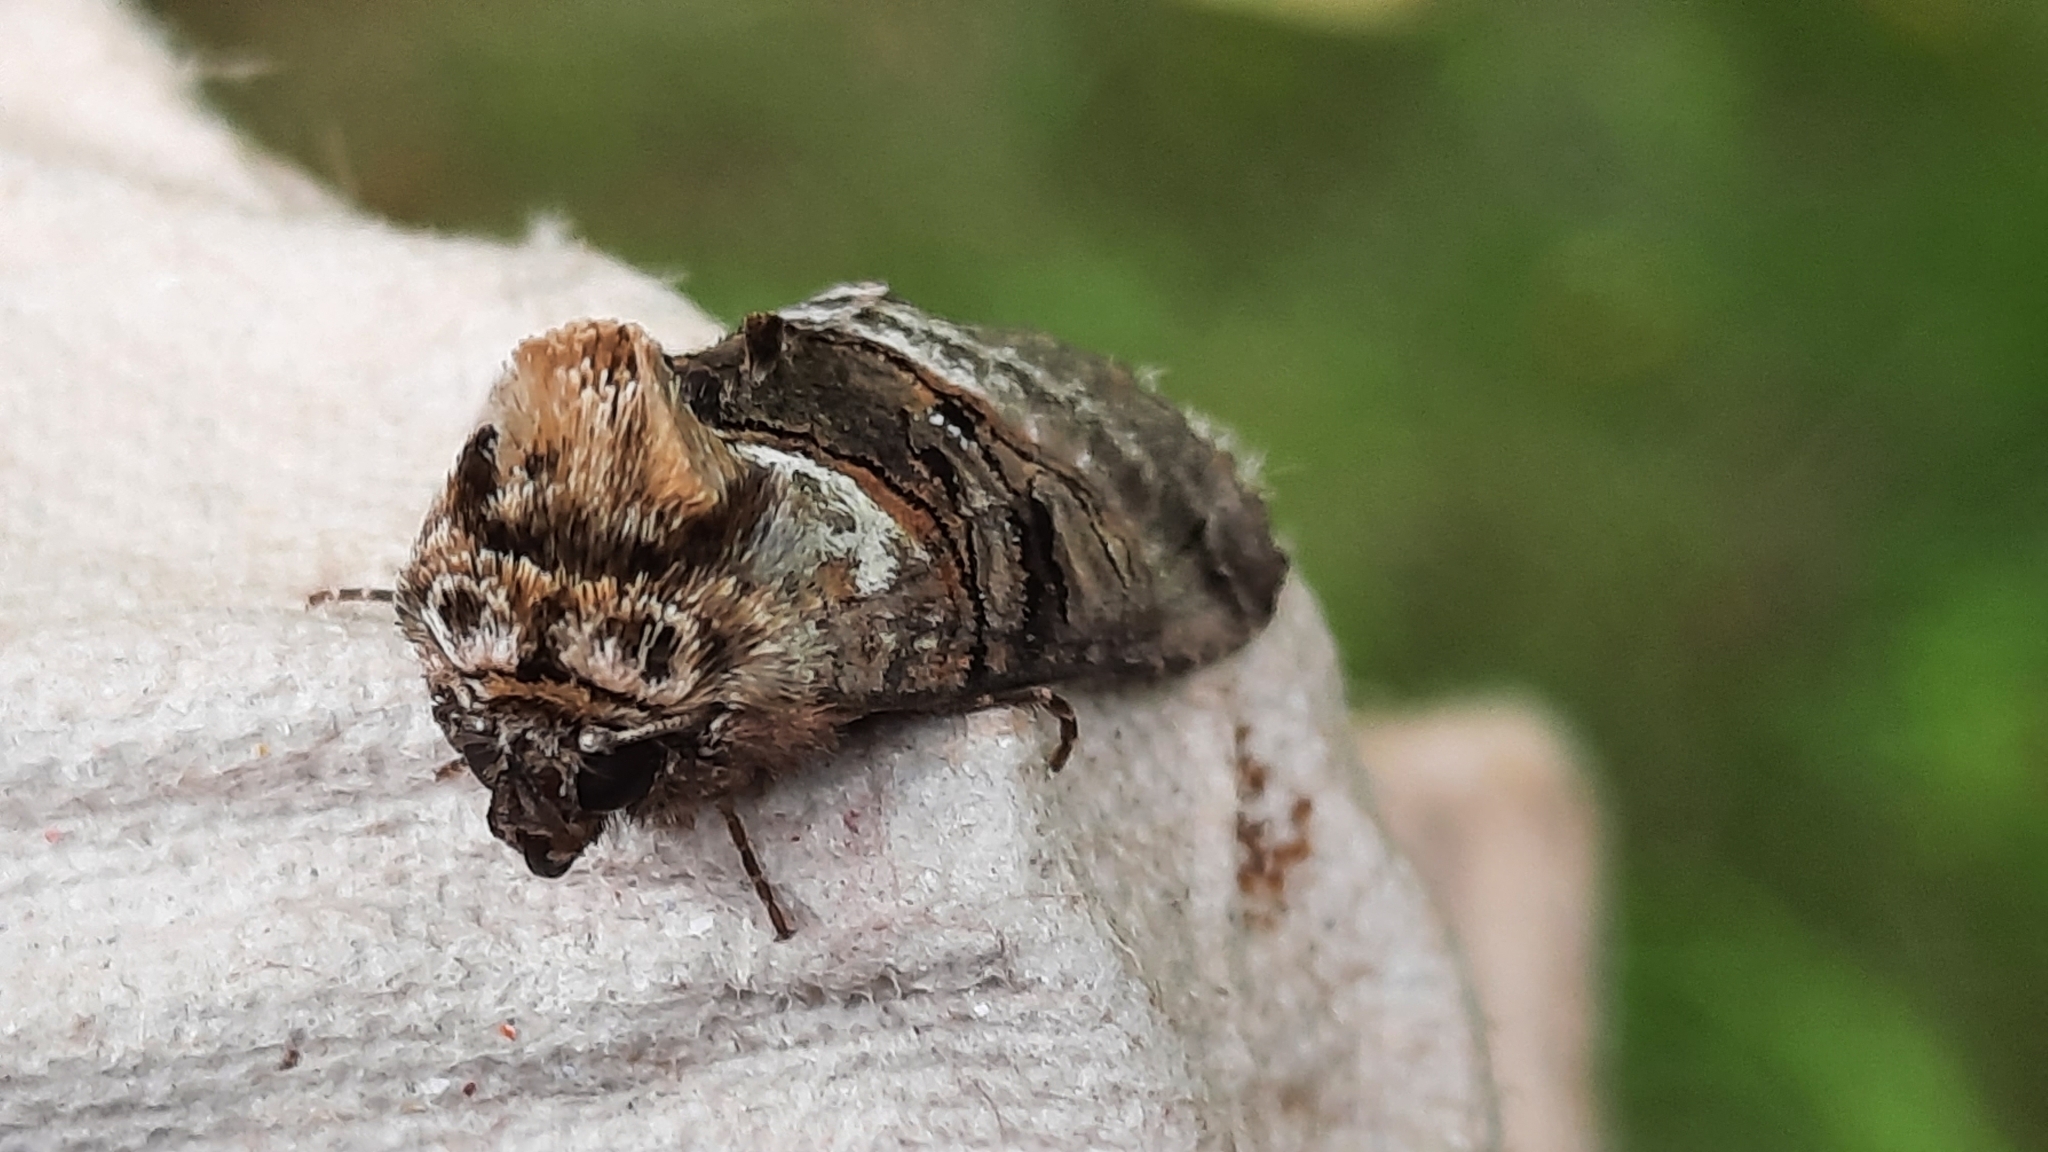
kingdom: Animalia
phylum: Arthropoda
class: Insecta
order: Lepidoptera
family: Noctuidae
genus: Abrostola
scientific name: Abrostola tripartita
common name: Spectacle
